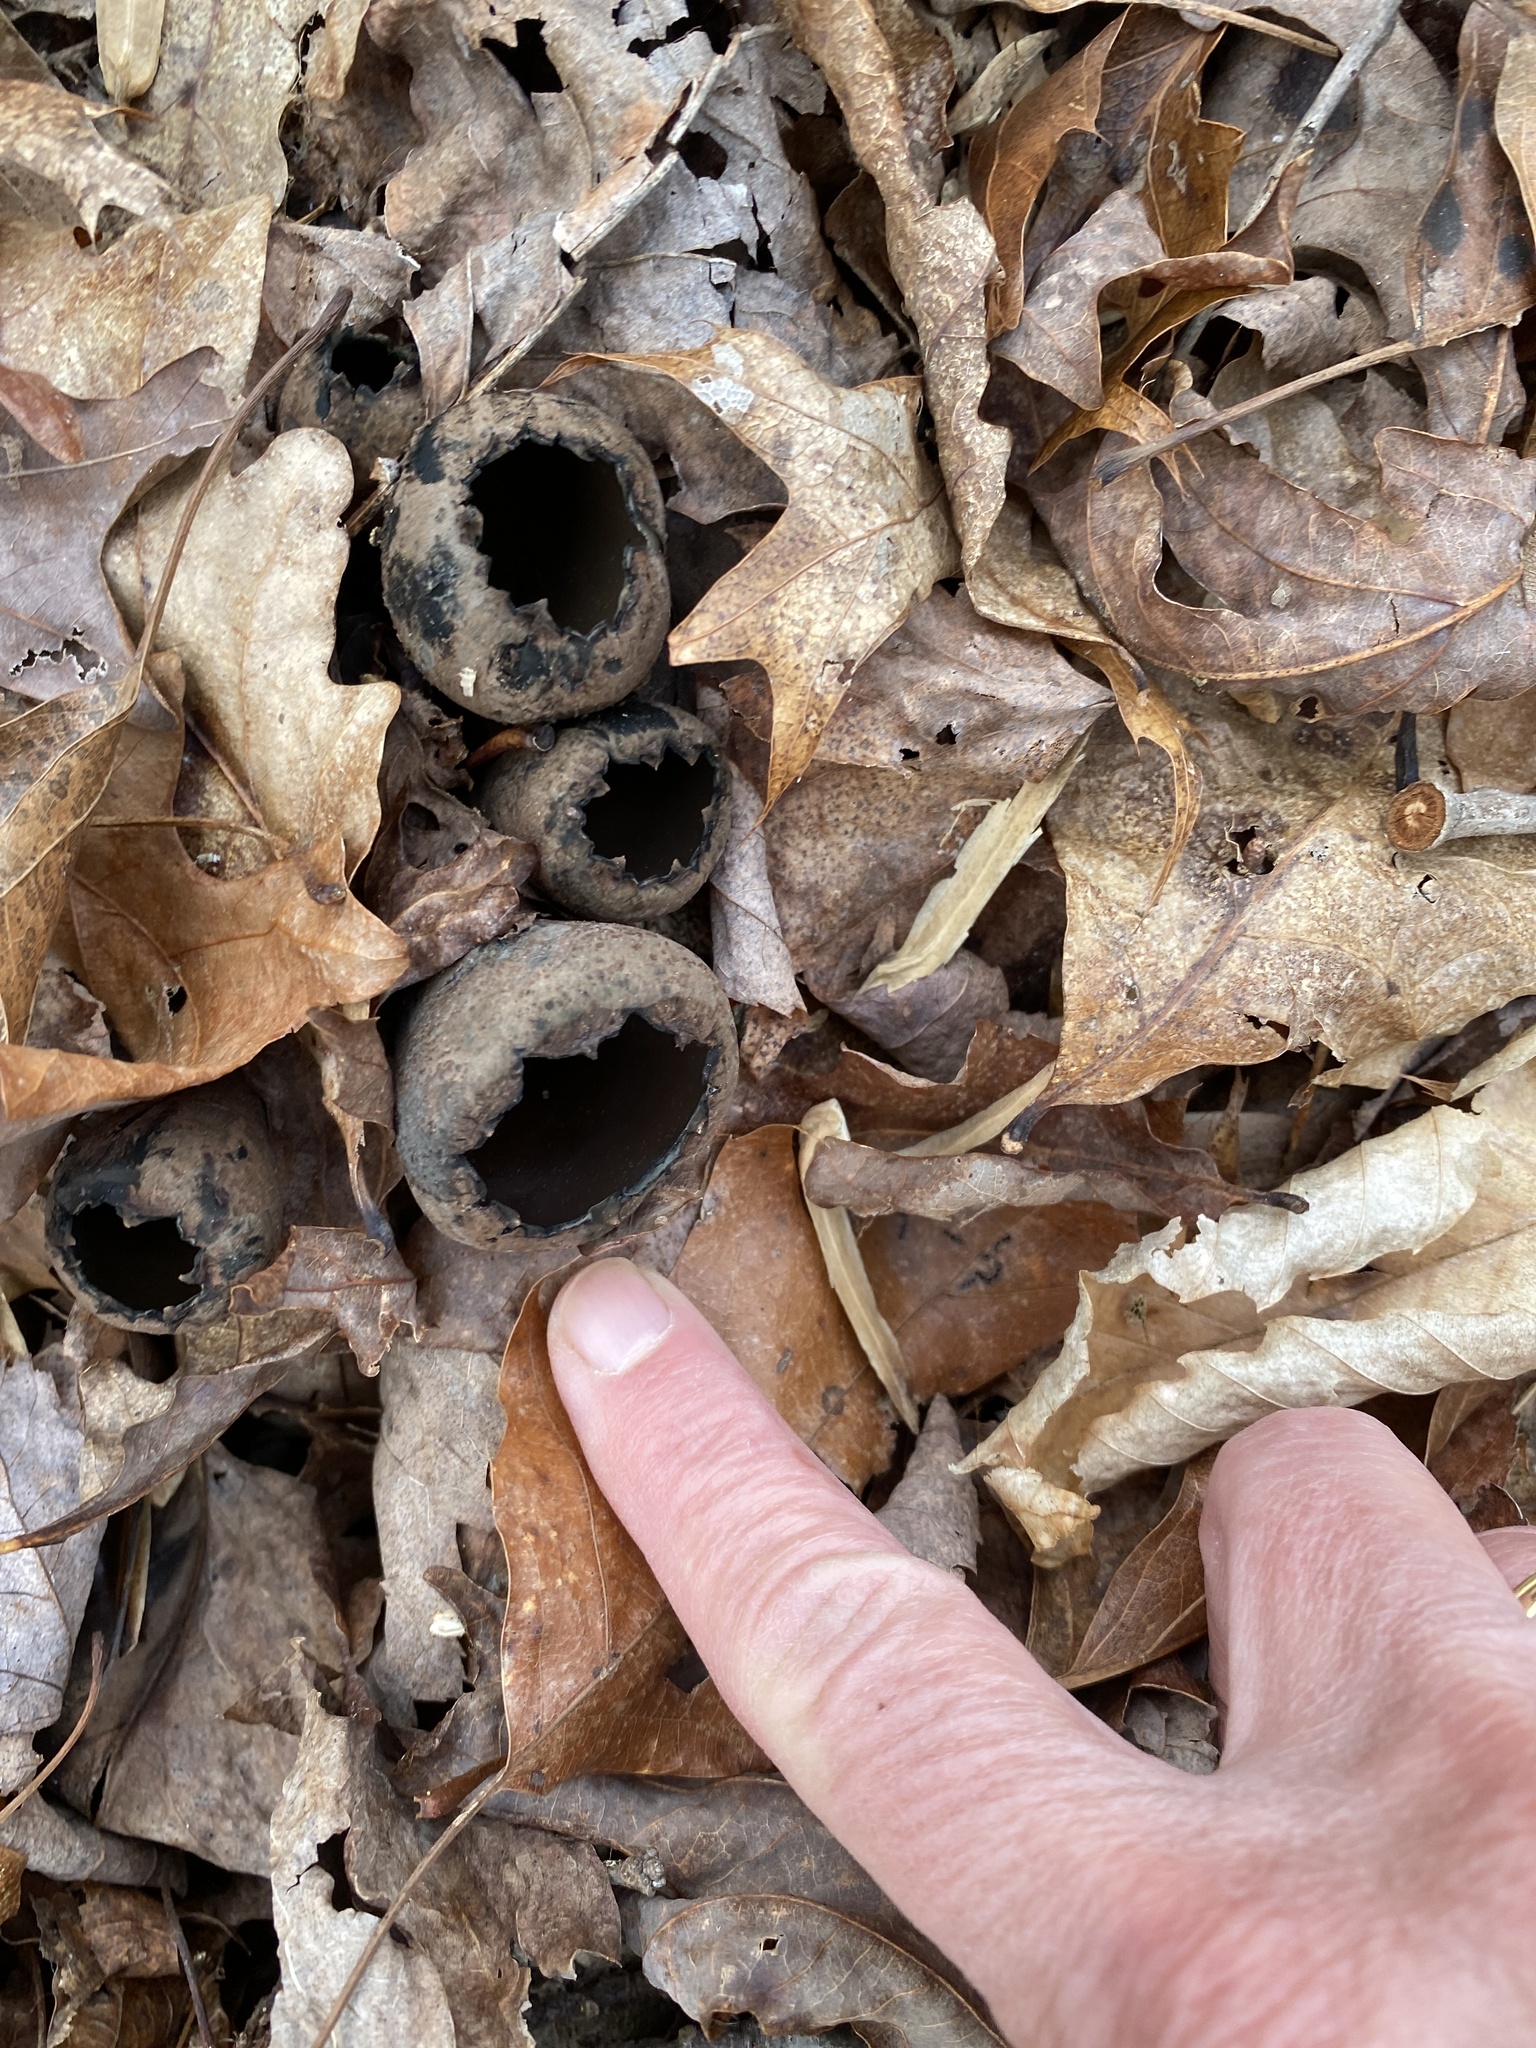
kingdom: Fungi
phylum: Ascomycota
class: Pezizomycetes
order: Pezizales
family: Sarcosomataceae
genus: Urnula
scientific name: Urnula craterium
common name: Devil's urn
